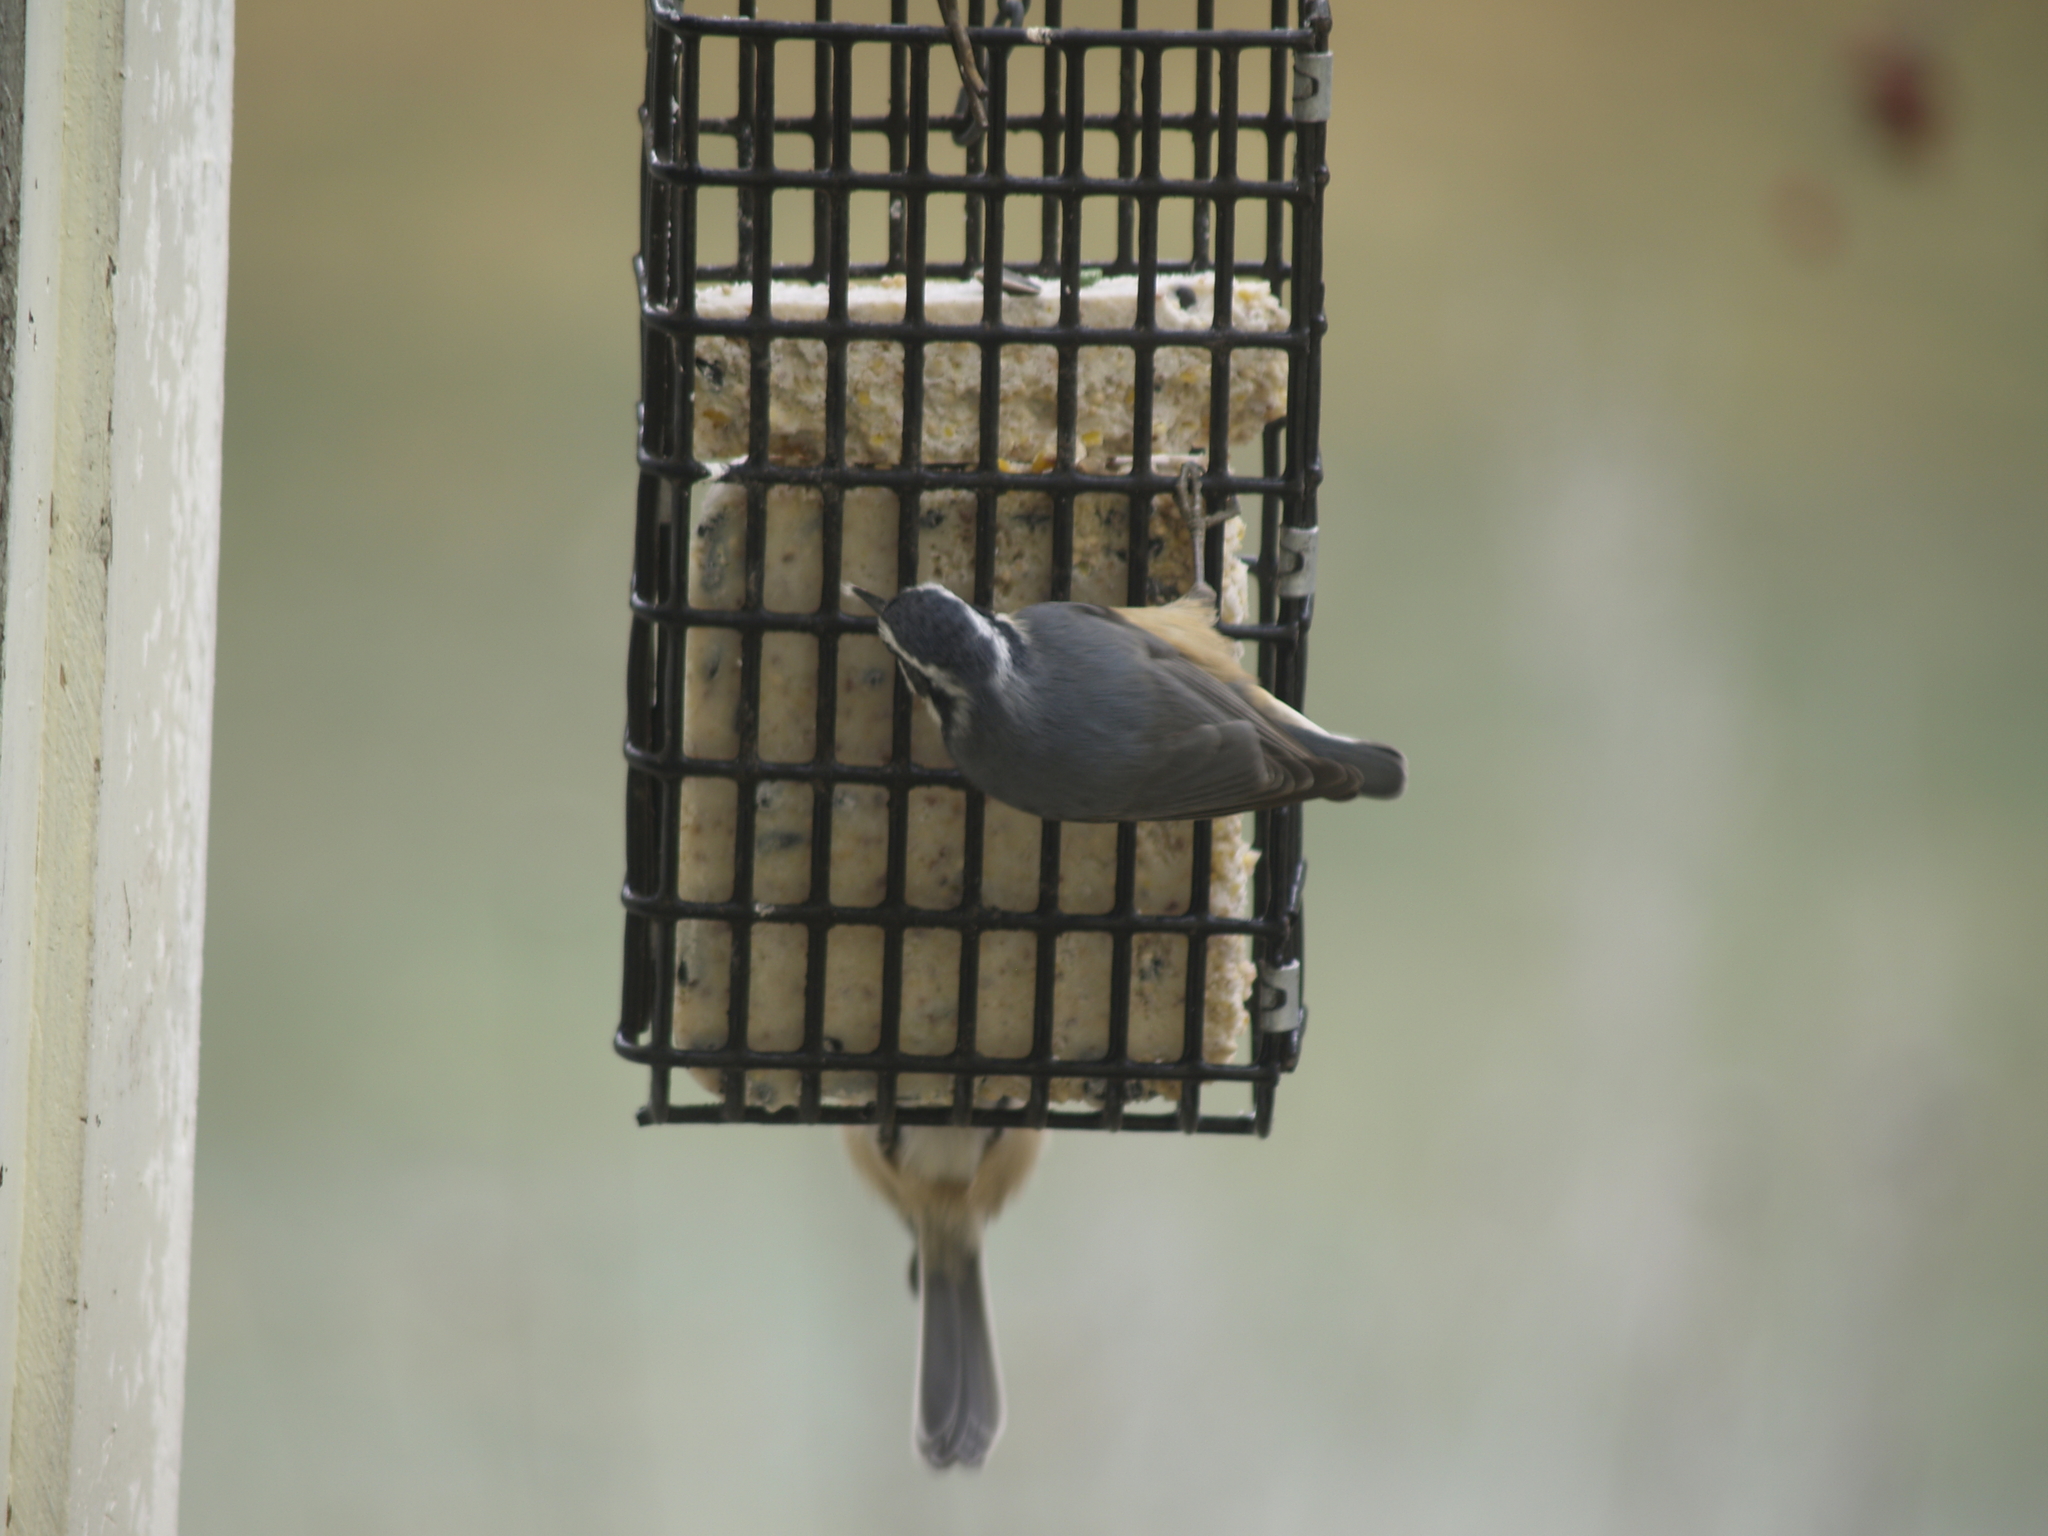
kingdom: Animalia
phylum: Chordata
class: Aves
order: Passeriformes
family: Paridae
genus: Poecile
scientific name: Poecile atricapillus
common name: Black-capped chickadee
